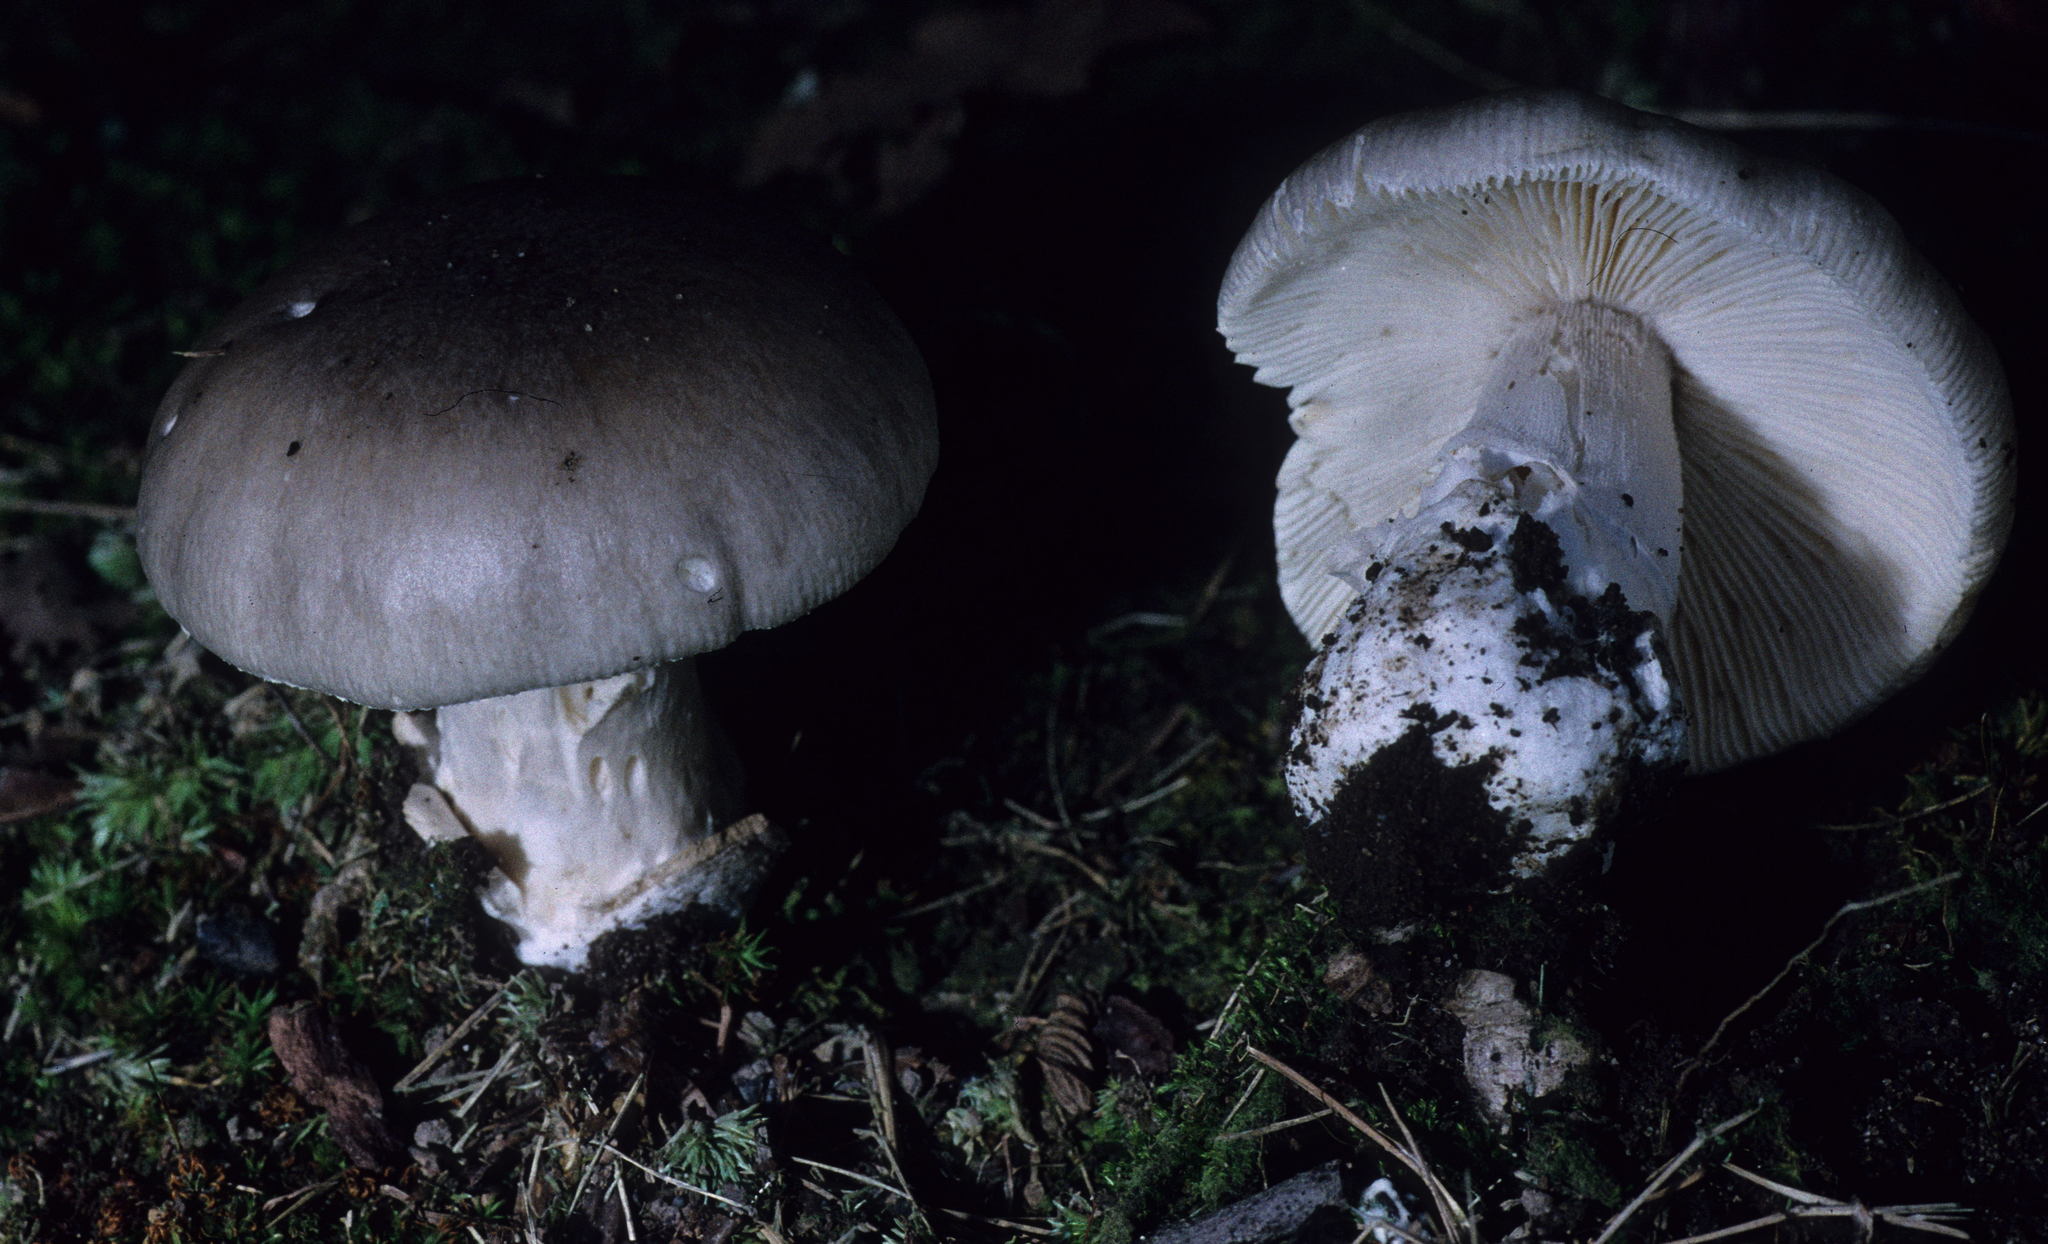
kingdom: Fungi
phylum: Basidiomycota
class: Agaricomycetes
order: Agaricales
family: Amanitaceae
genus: Amanita
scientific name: Amanita spreta
